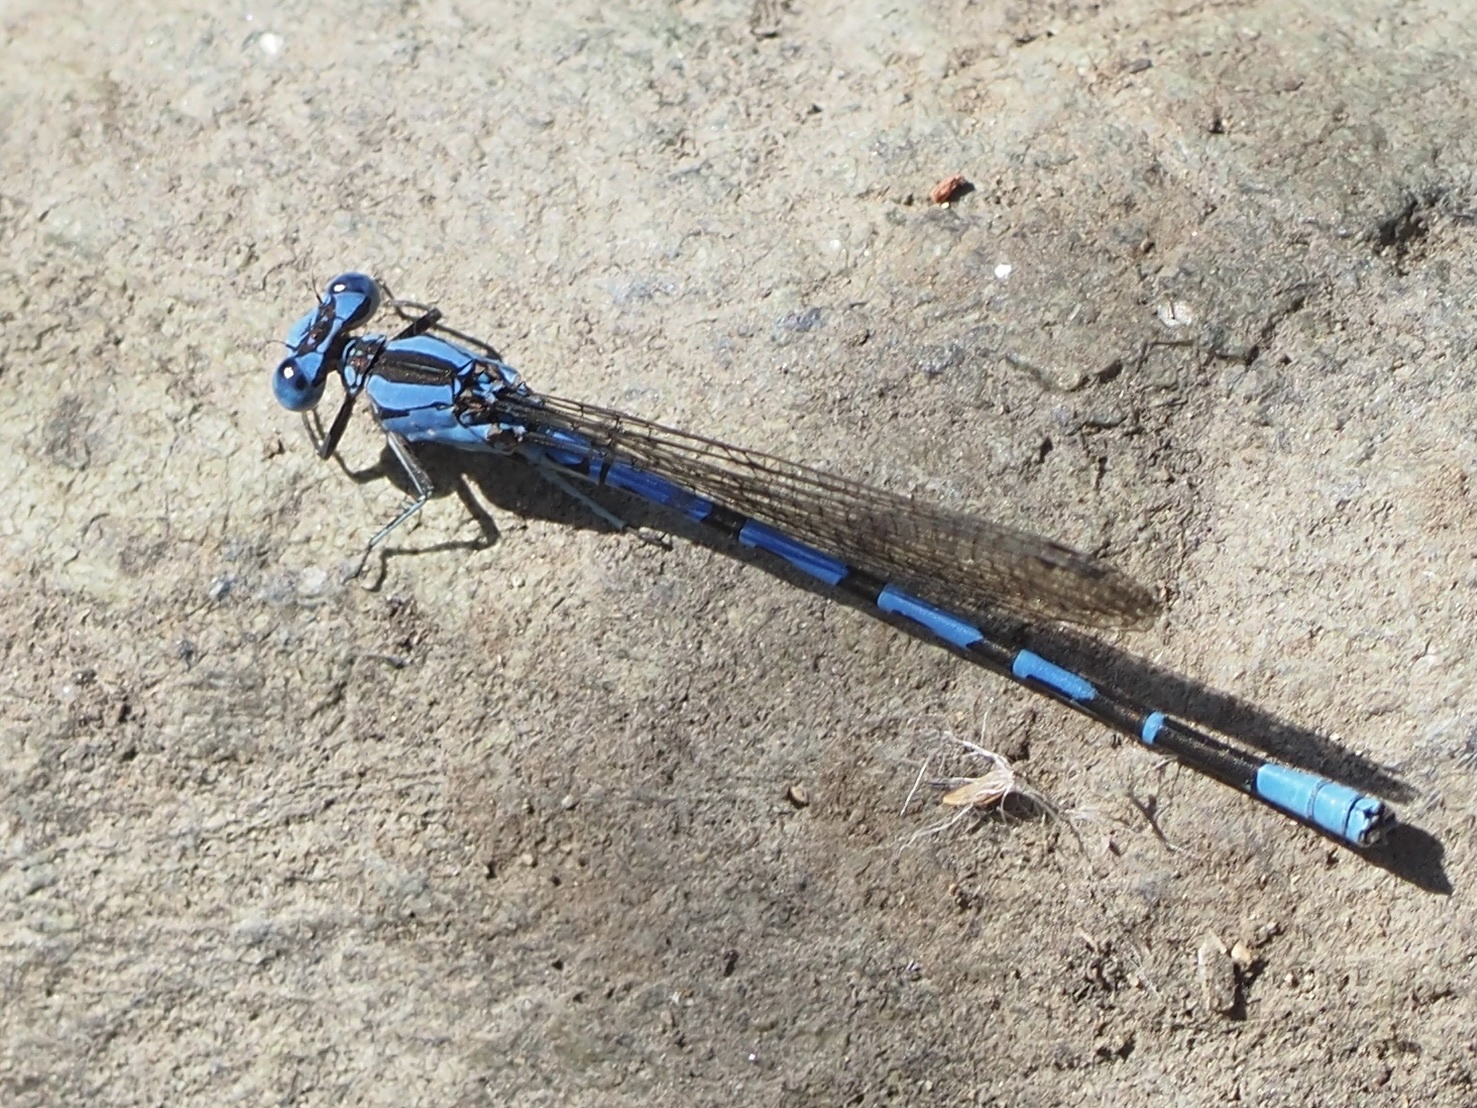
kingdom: Animalia
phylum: Arthropoda
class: Insecta
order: Odonata
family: Coenagrionidae
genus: Argia
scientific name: Argia vivida
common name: Vivid dancer
